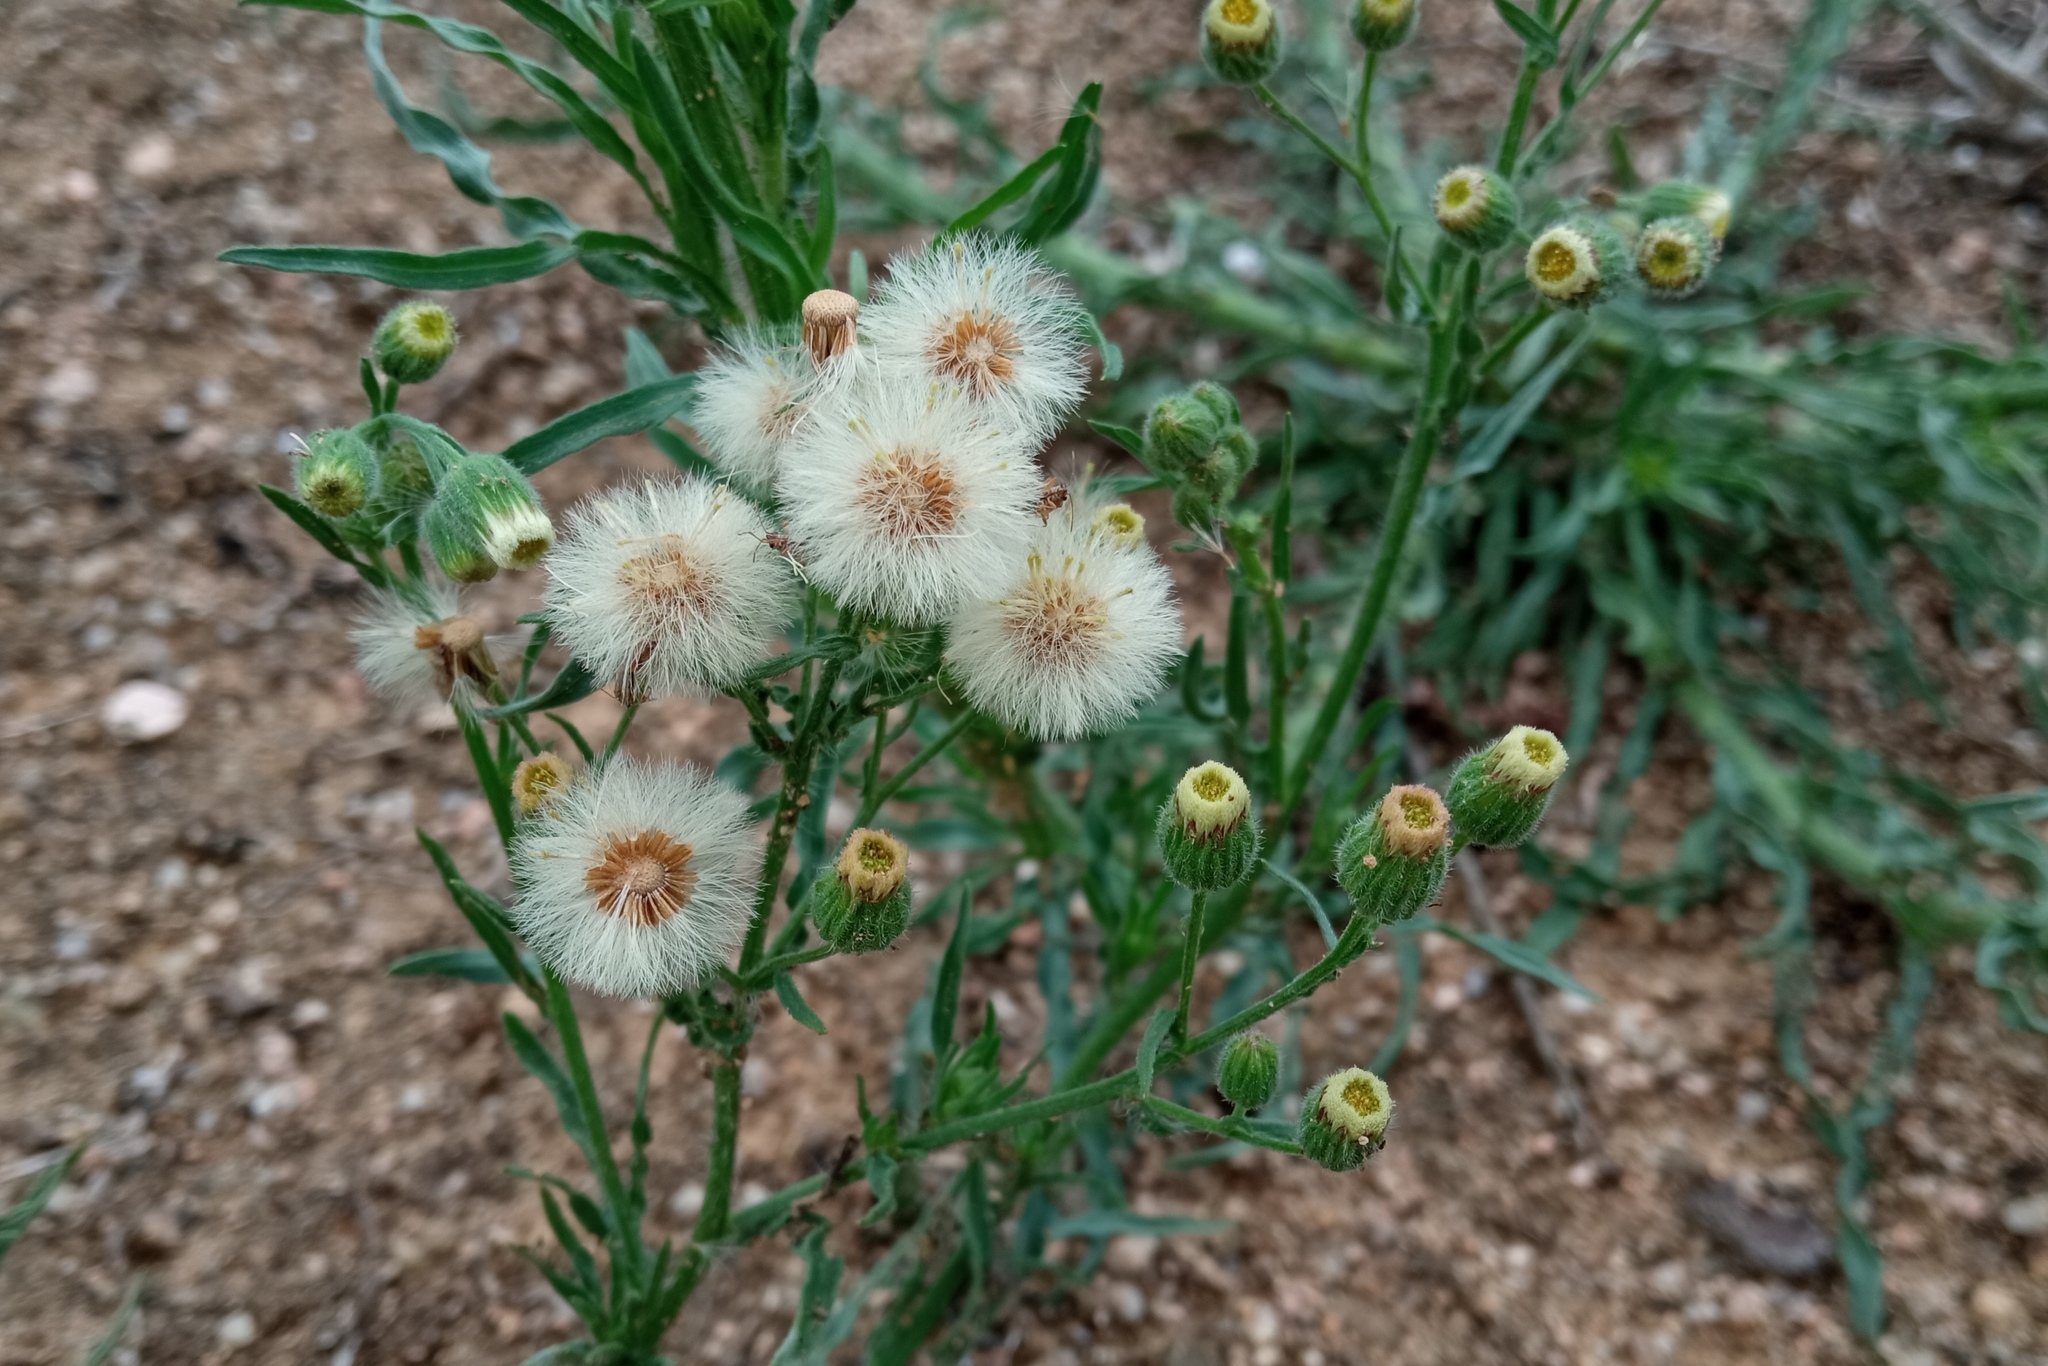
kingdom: Plantae
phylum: Tracheophyta
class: Magnoliopsida
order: Asterales
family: Asteraceae
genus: Erigeron
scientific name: Erigeron bonariensis
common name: Argentine fleabane
